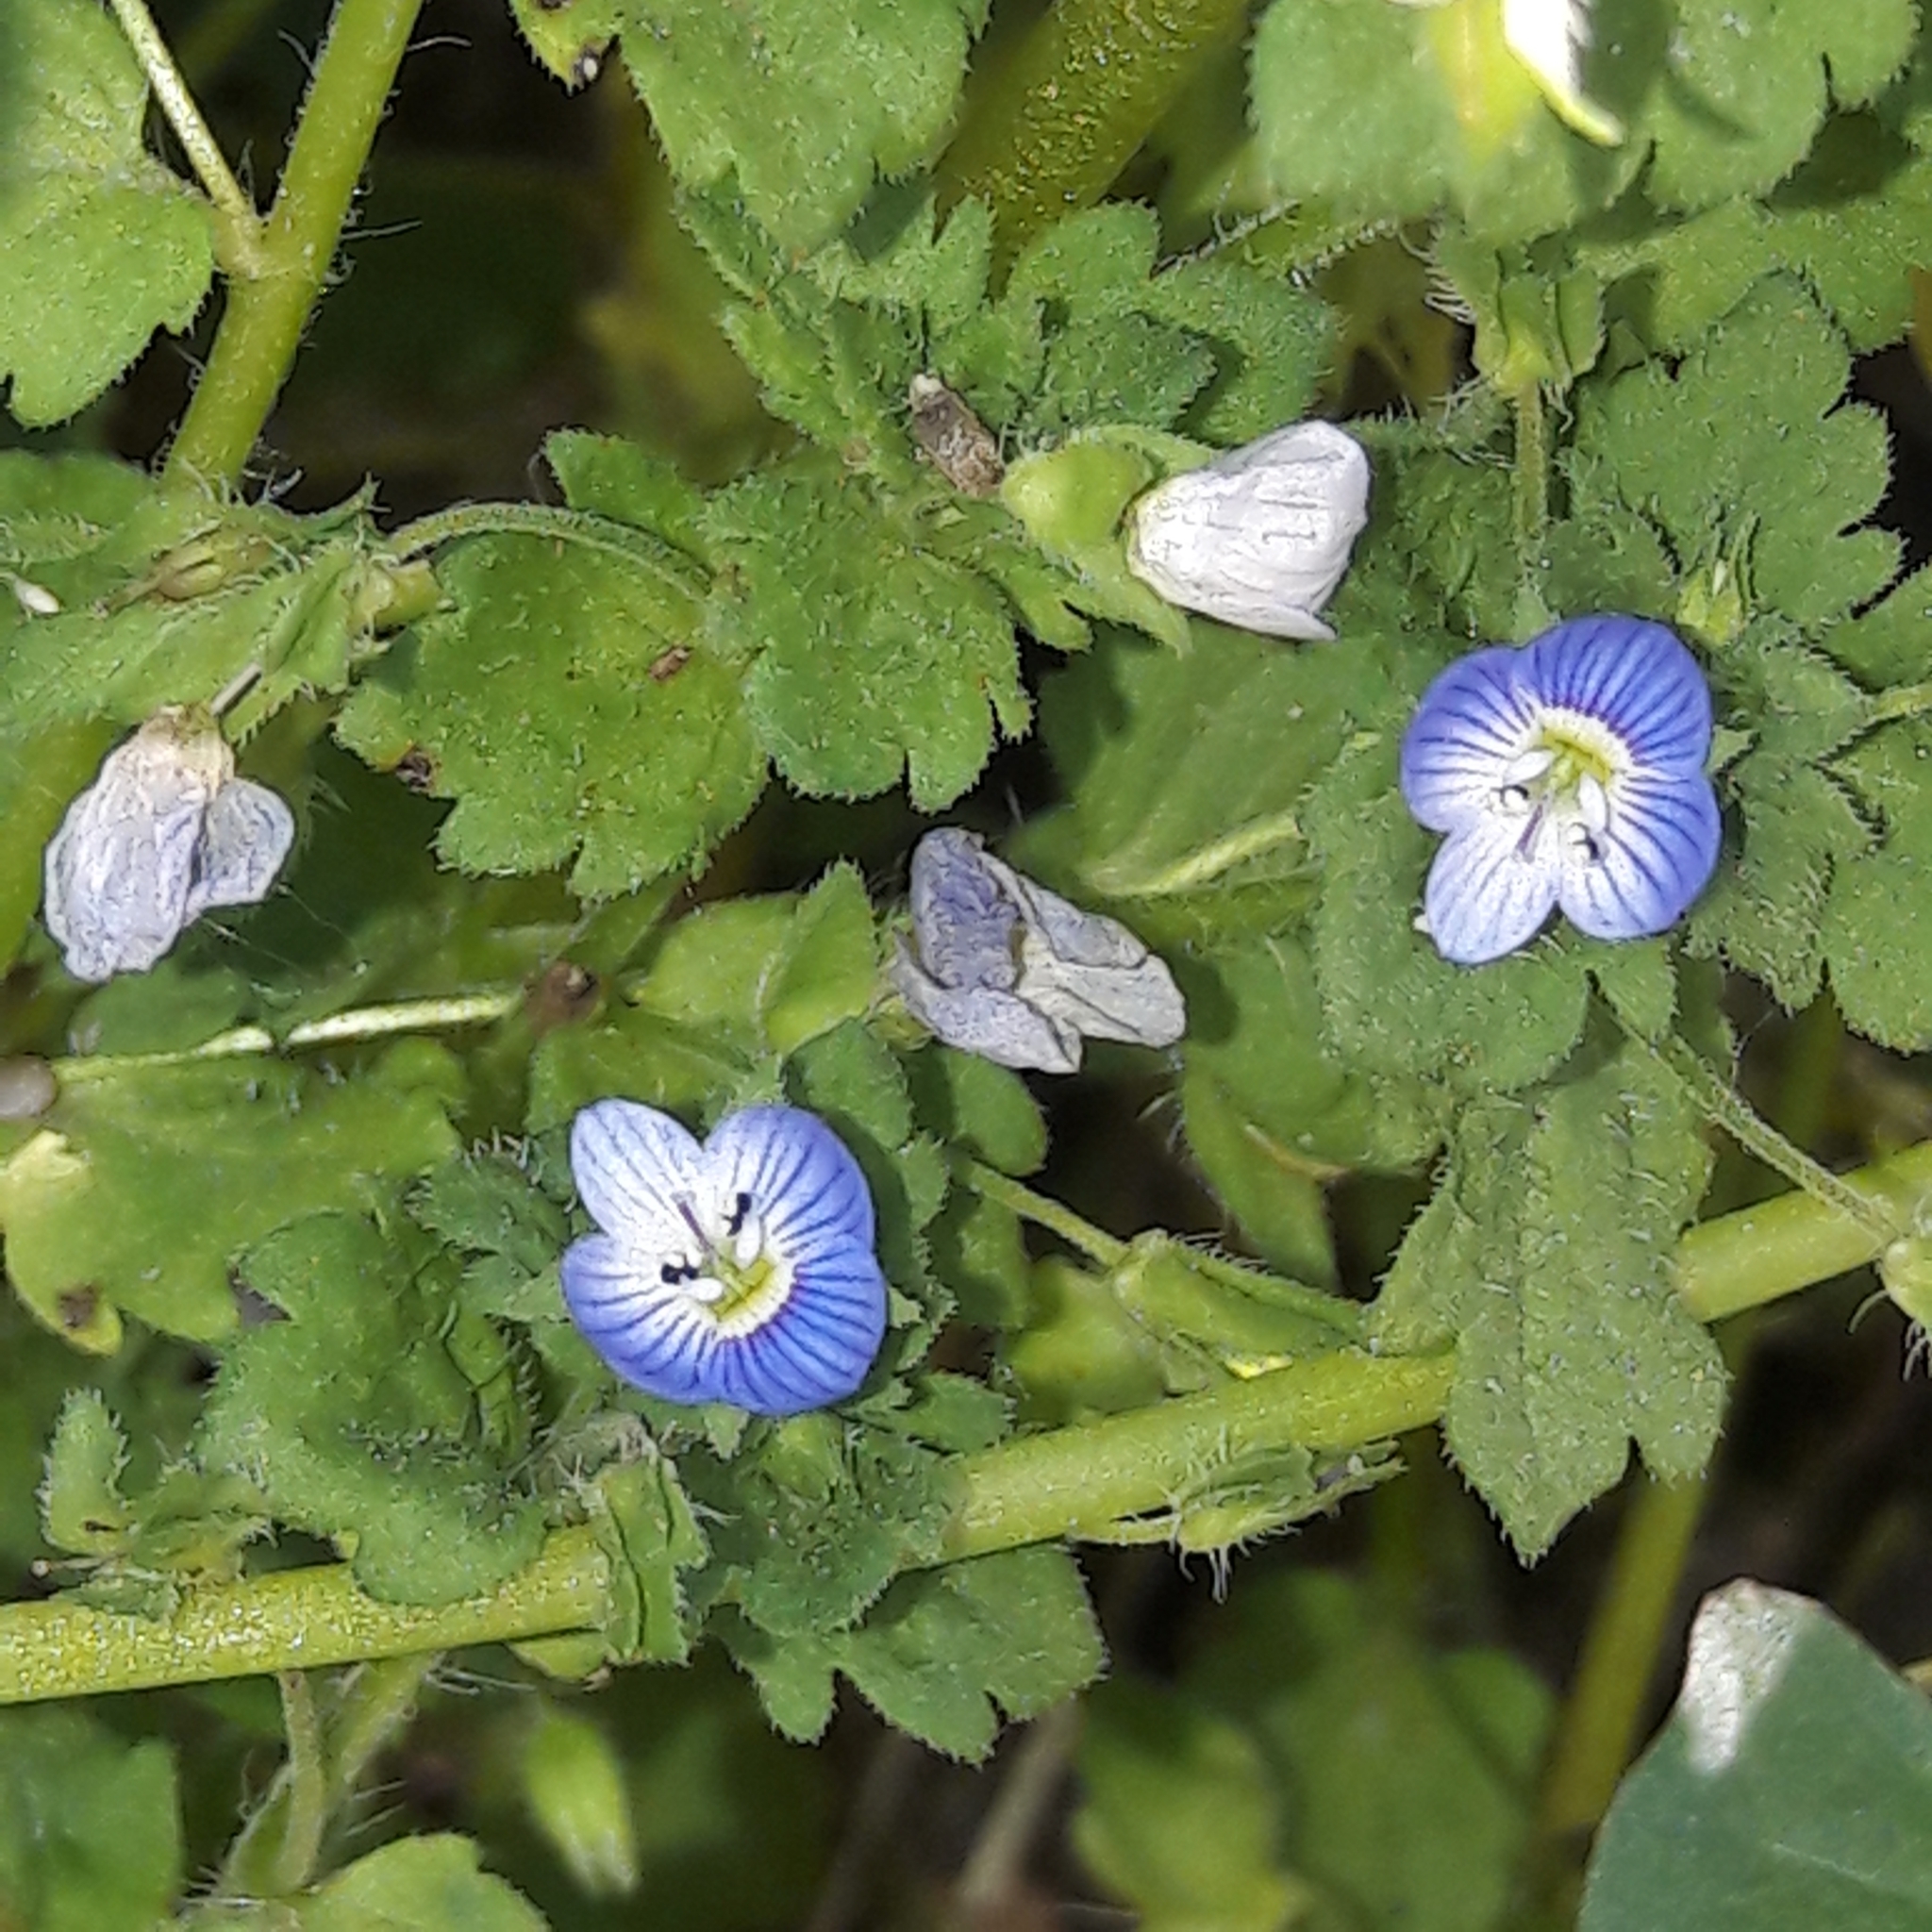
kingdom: Plantae
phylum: Tracheophyta
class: Magnoliopsida
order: Lamiales
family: Plantaginaceae
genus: Veronica
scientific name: Veronica persica
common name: Common field-speedwell
